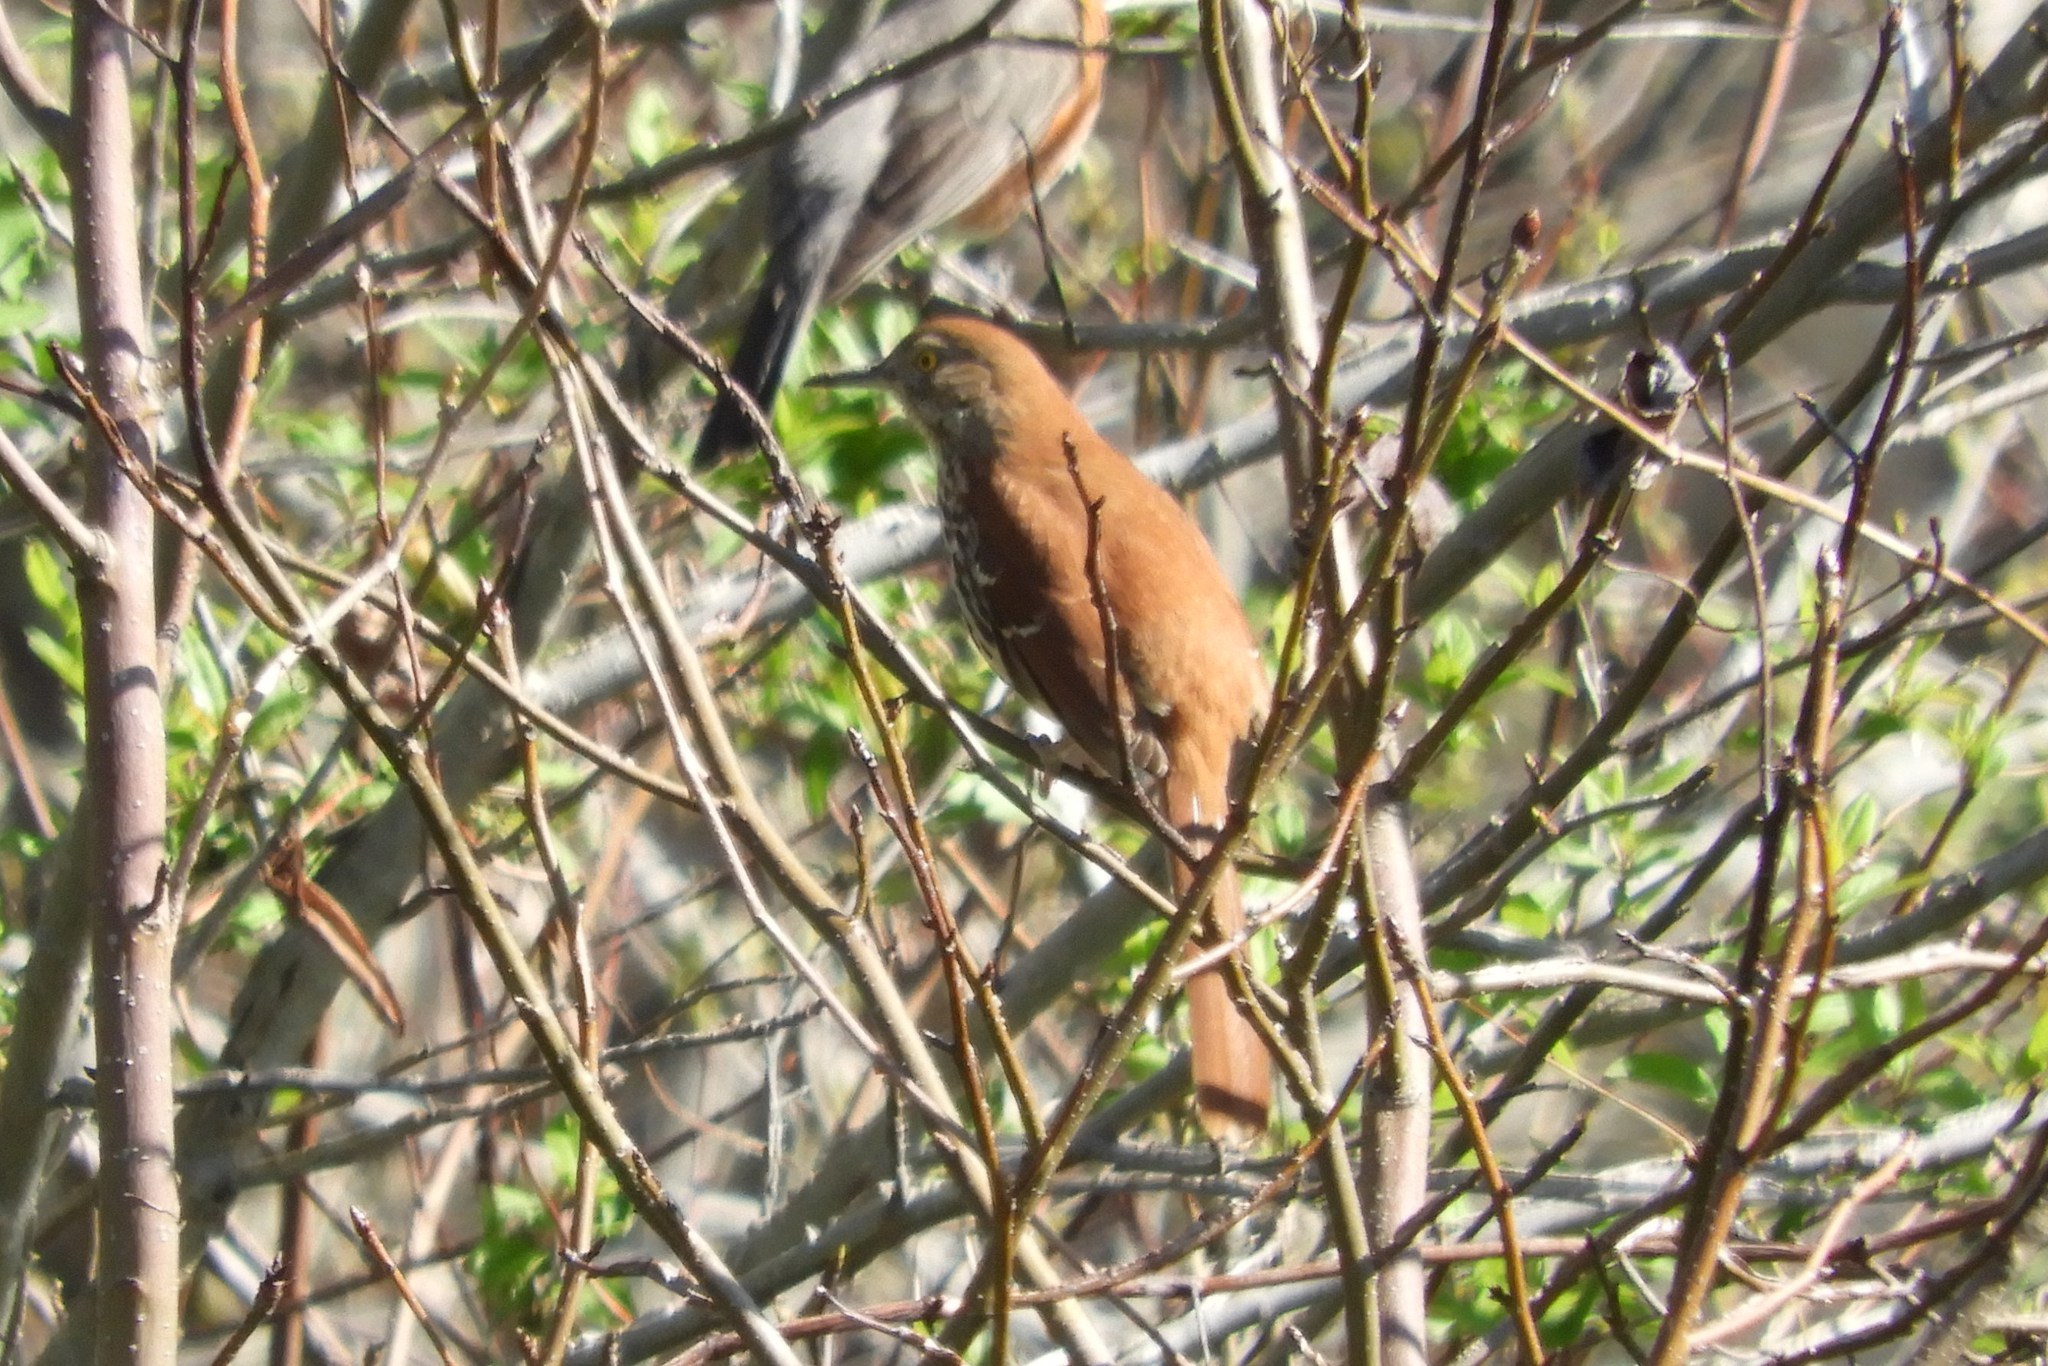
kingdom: Animalia
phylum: Chordata
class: Aves
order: Passeriformes
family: Mimidae
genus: Toxostoma
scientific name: Toxostoma rufum
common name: Brown thrasher
